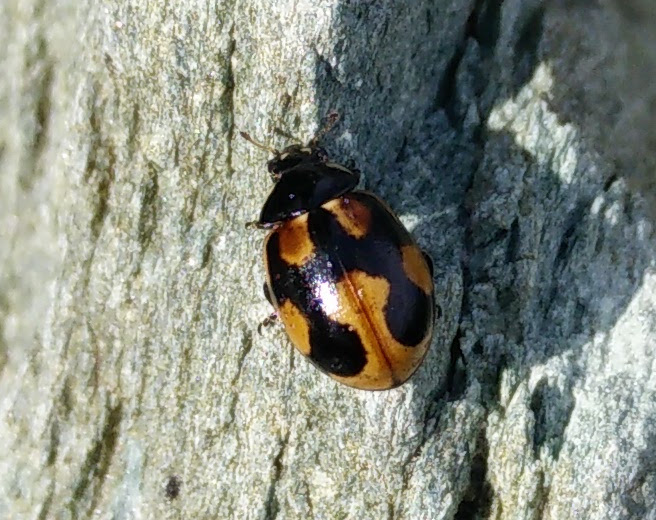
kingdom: Animalia
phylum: Arthropoda
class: Insecta
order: Coleoptera
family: Coccinellidae
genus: Coccinella
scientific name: Coccinella hieroglyphica
